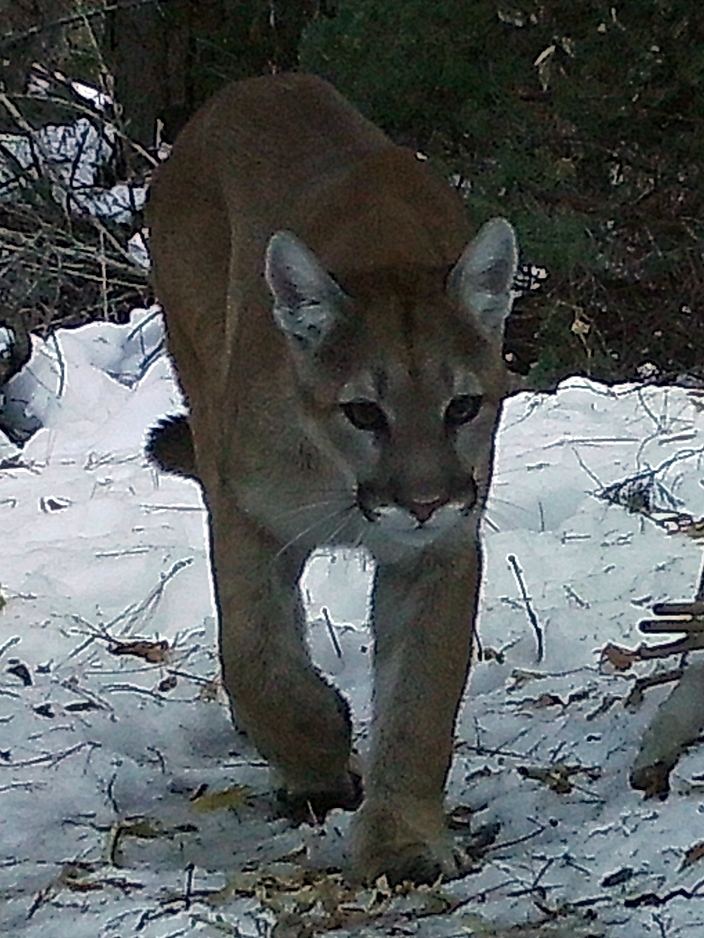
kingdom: Animalia
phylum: Chordata
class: Mammalia
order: Carnivora
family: Felidae
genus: Puma
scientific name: Puma concolor
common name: Puma
